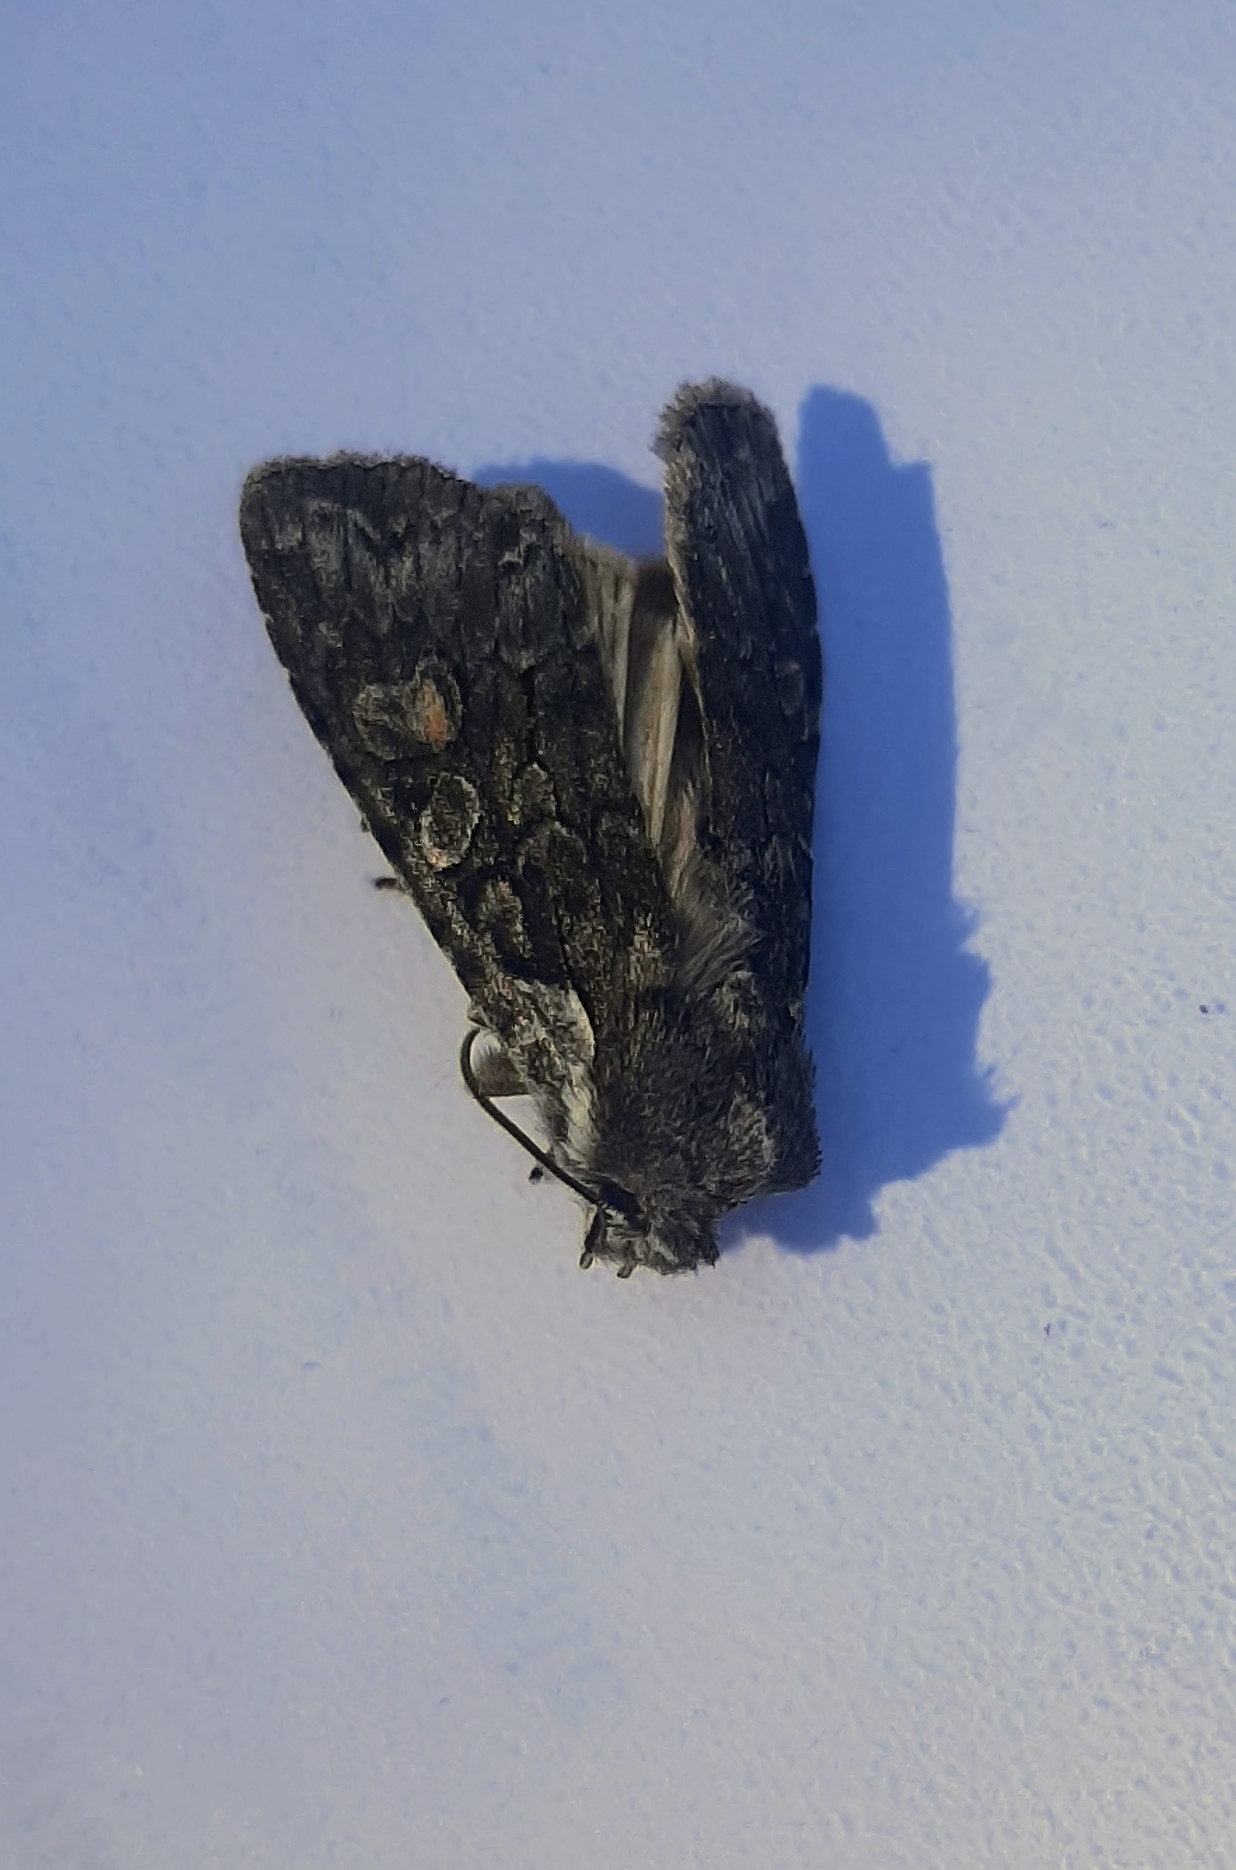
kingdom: Animalia
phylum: Arthropoda
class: Insecta
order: Lepidoptera
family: Noctuidae
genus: Lithophane
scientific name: Lithophane consocia
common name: Softly's shoulder-knot
